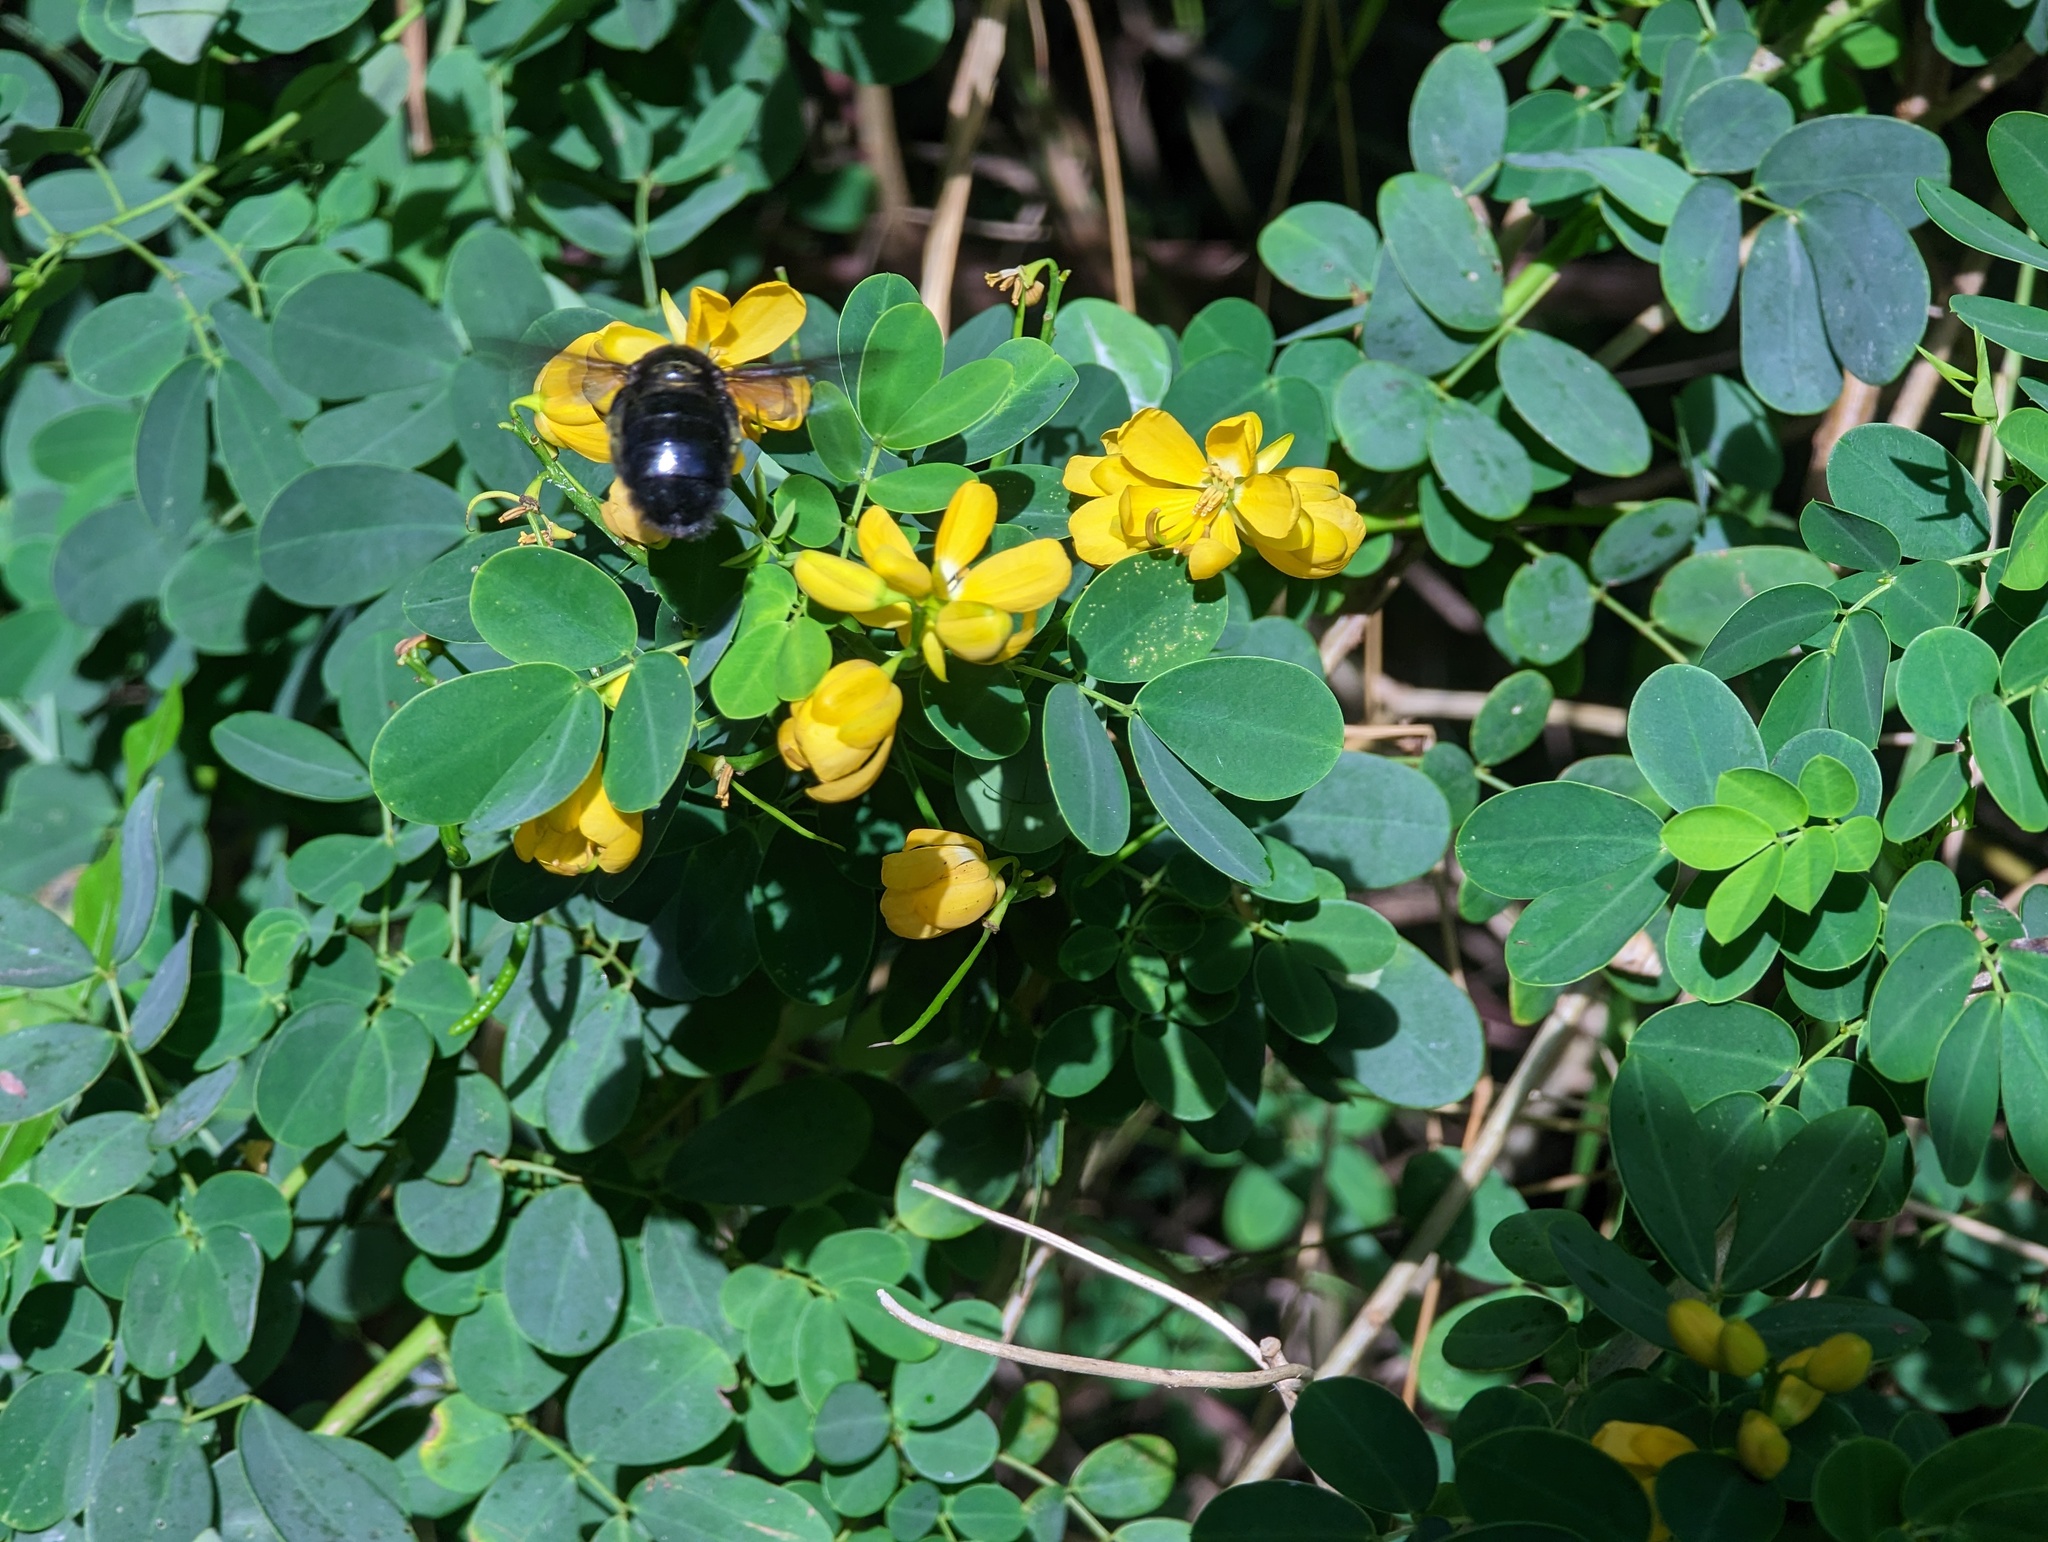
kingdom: Animalia
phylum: Arthropoda
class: Insecta
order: Hymenoptera
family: Apidae
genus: Xylocopa
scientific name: Xylocopa mordax
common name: Antillean carpenter bee
